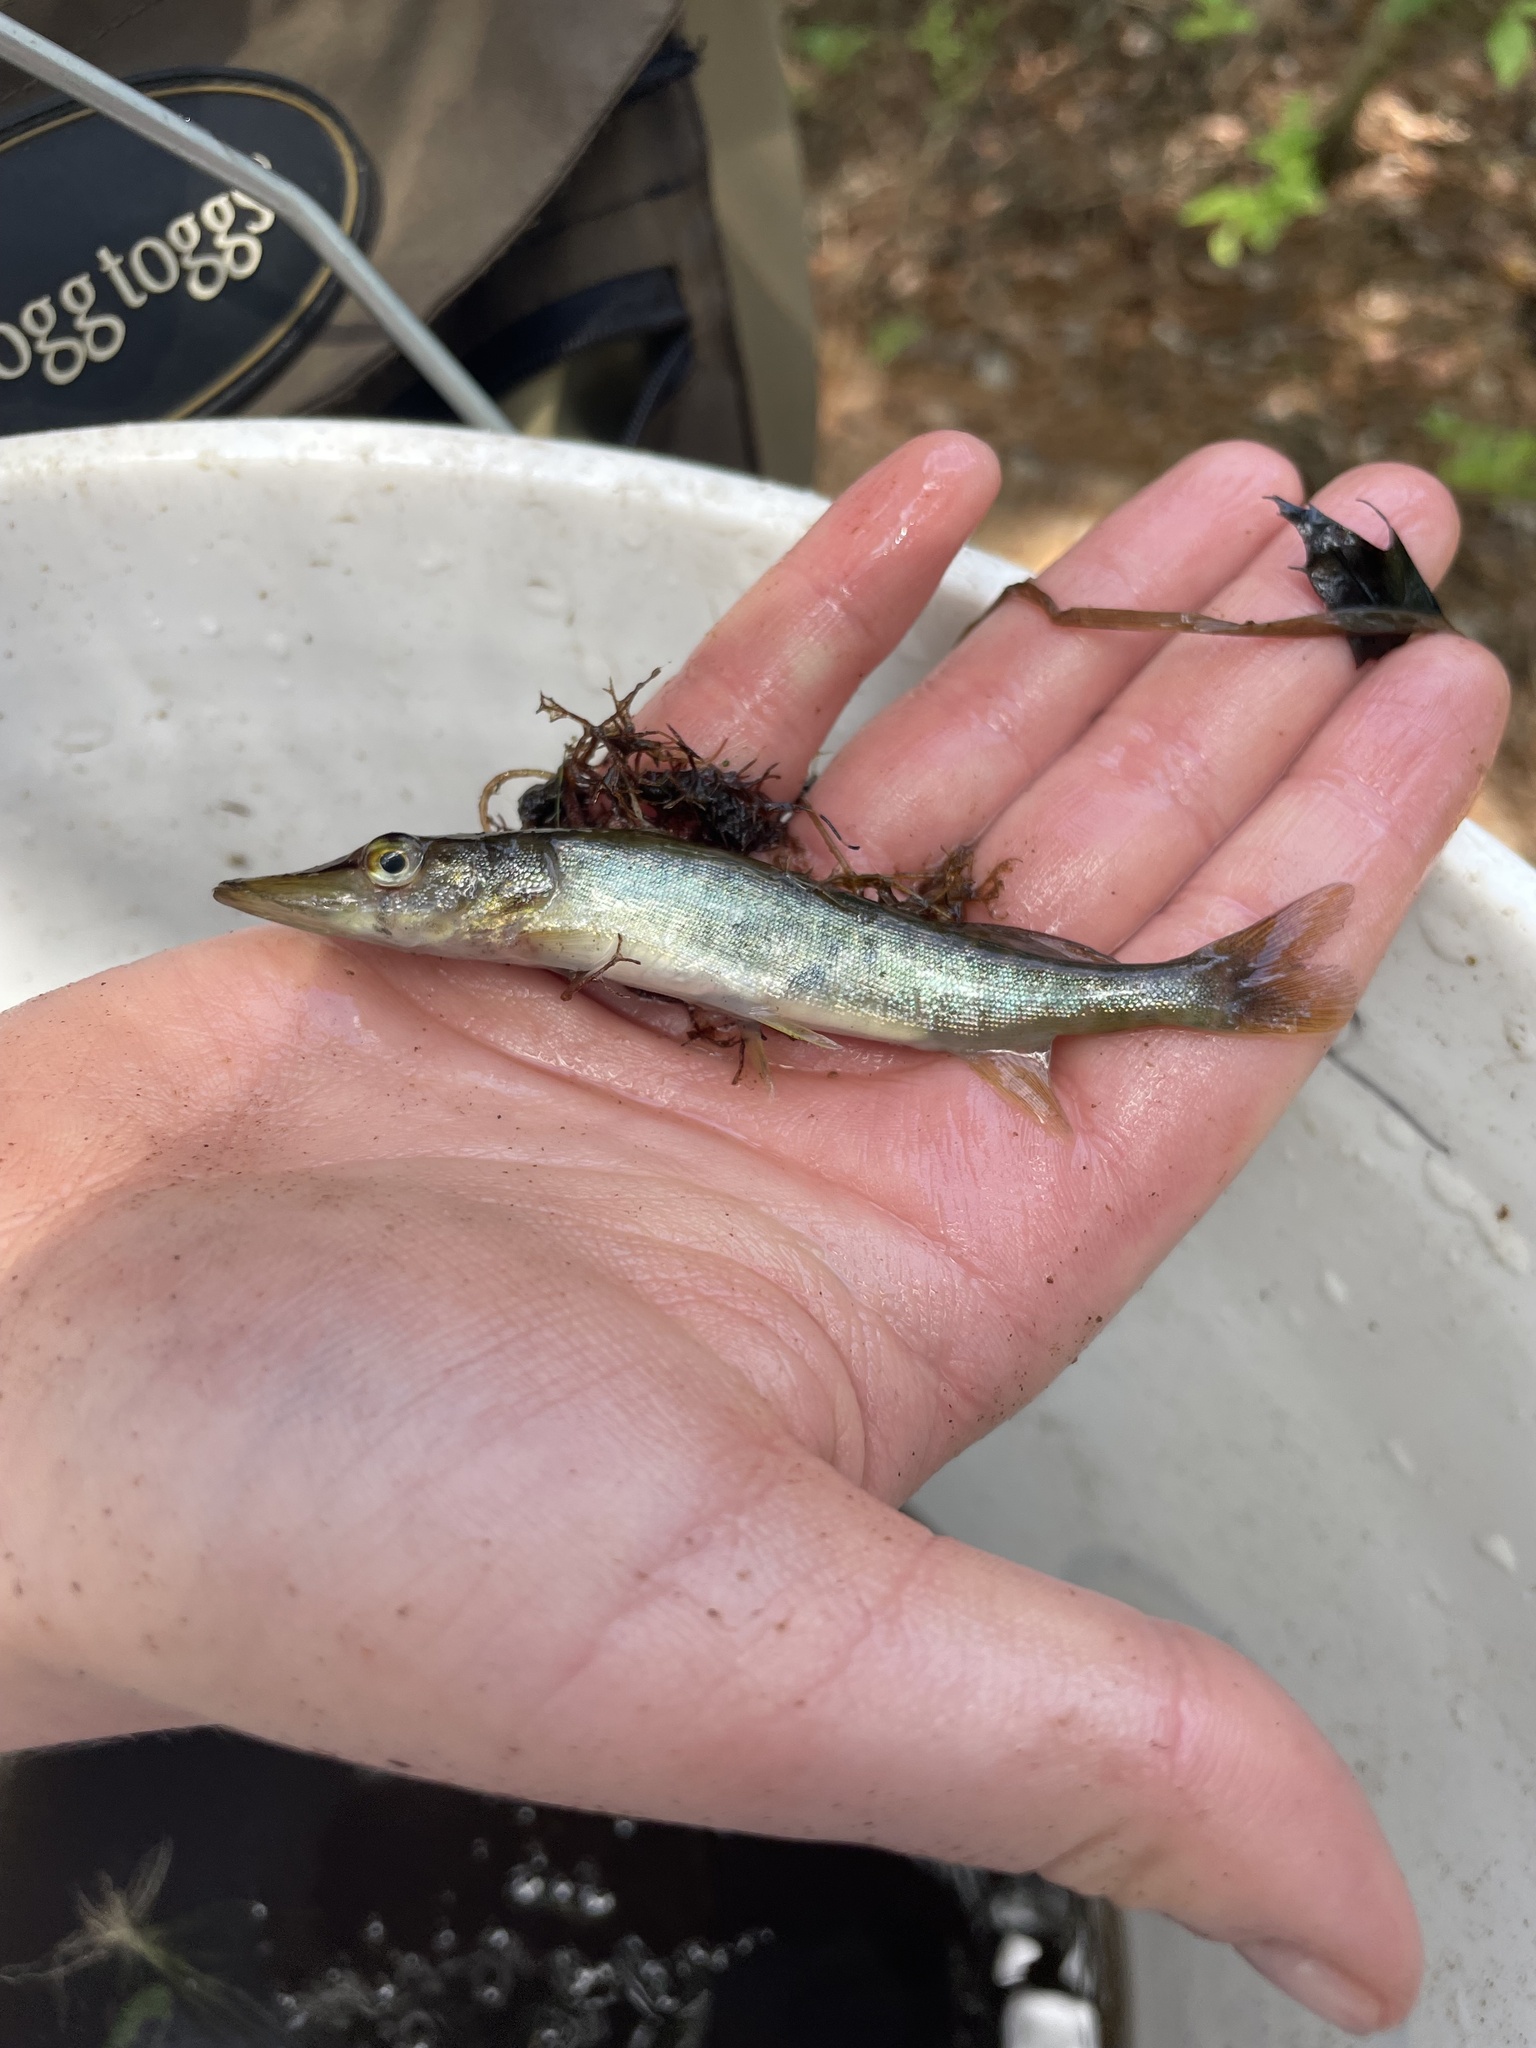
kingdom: Animalia
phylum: Chordata
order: Esociformes
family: Esocidae
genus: Esox
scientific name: Esox niger
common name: Chain pickerel
